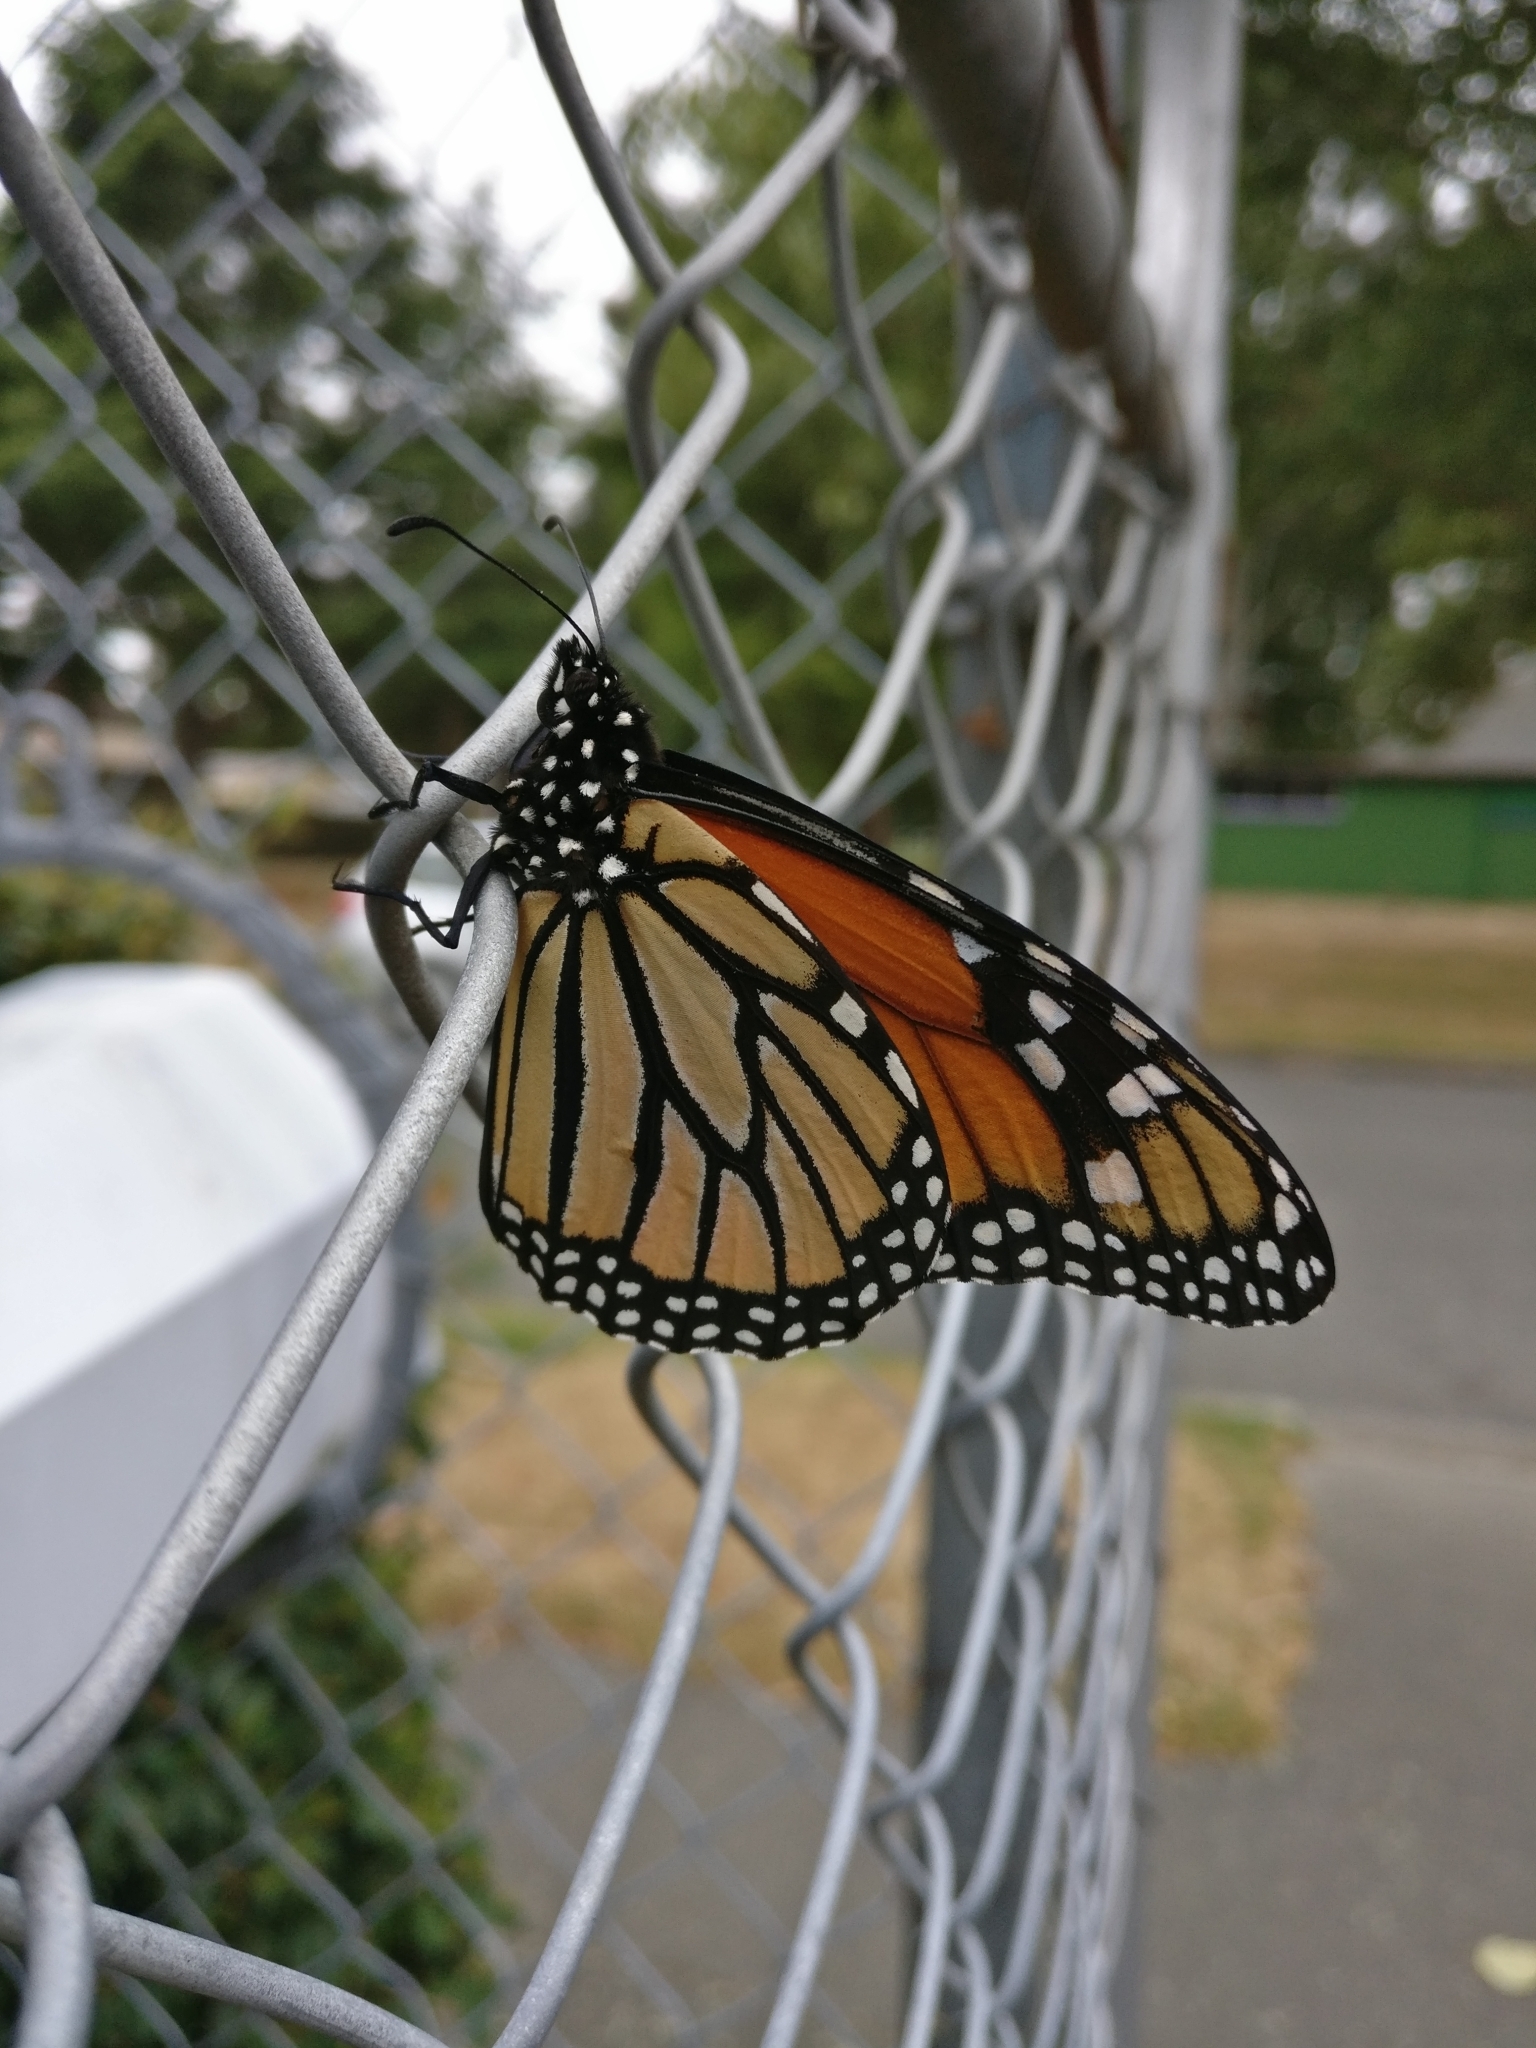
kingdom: Animalia
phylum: Arthropoda
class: Insecta
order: Lepidoptera
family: Nymphalidae
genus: Danaus
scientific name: Danaus plexippus
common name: Monarch
